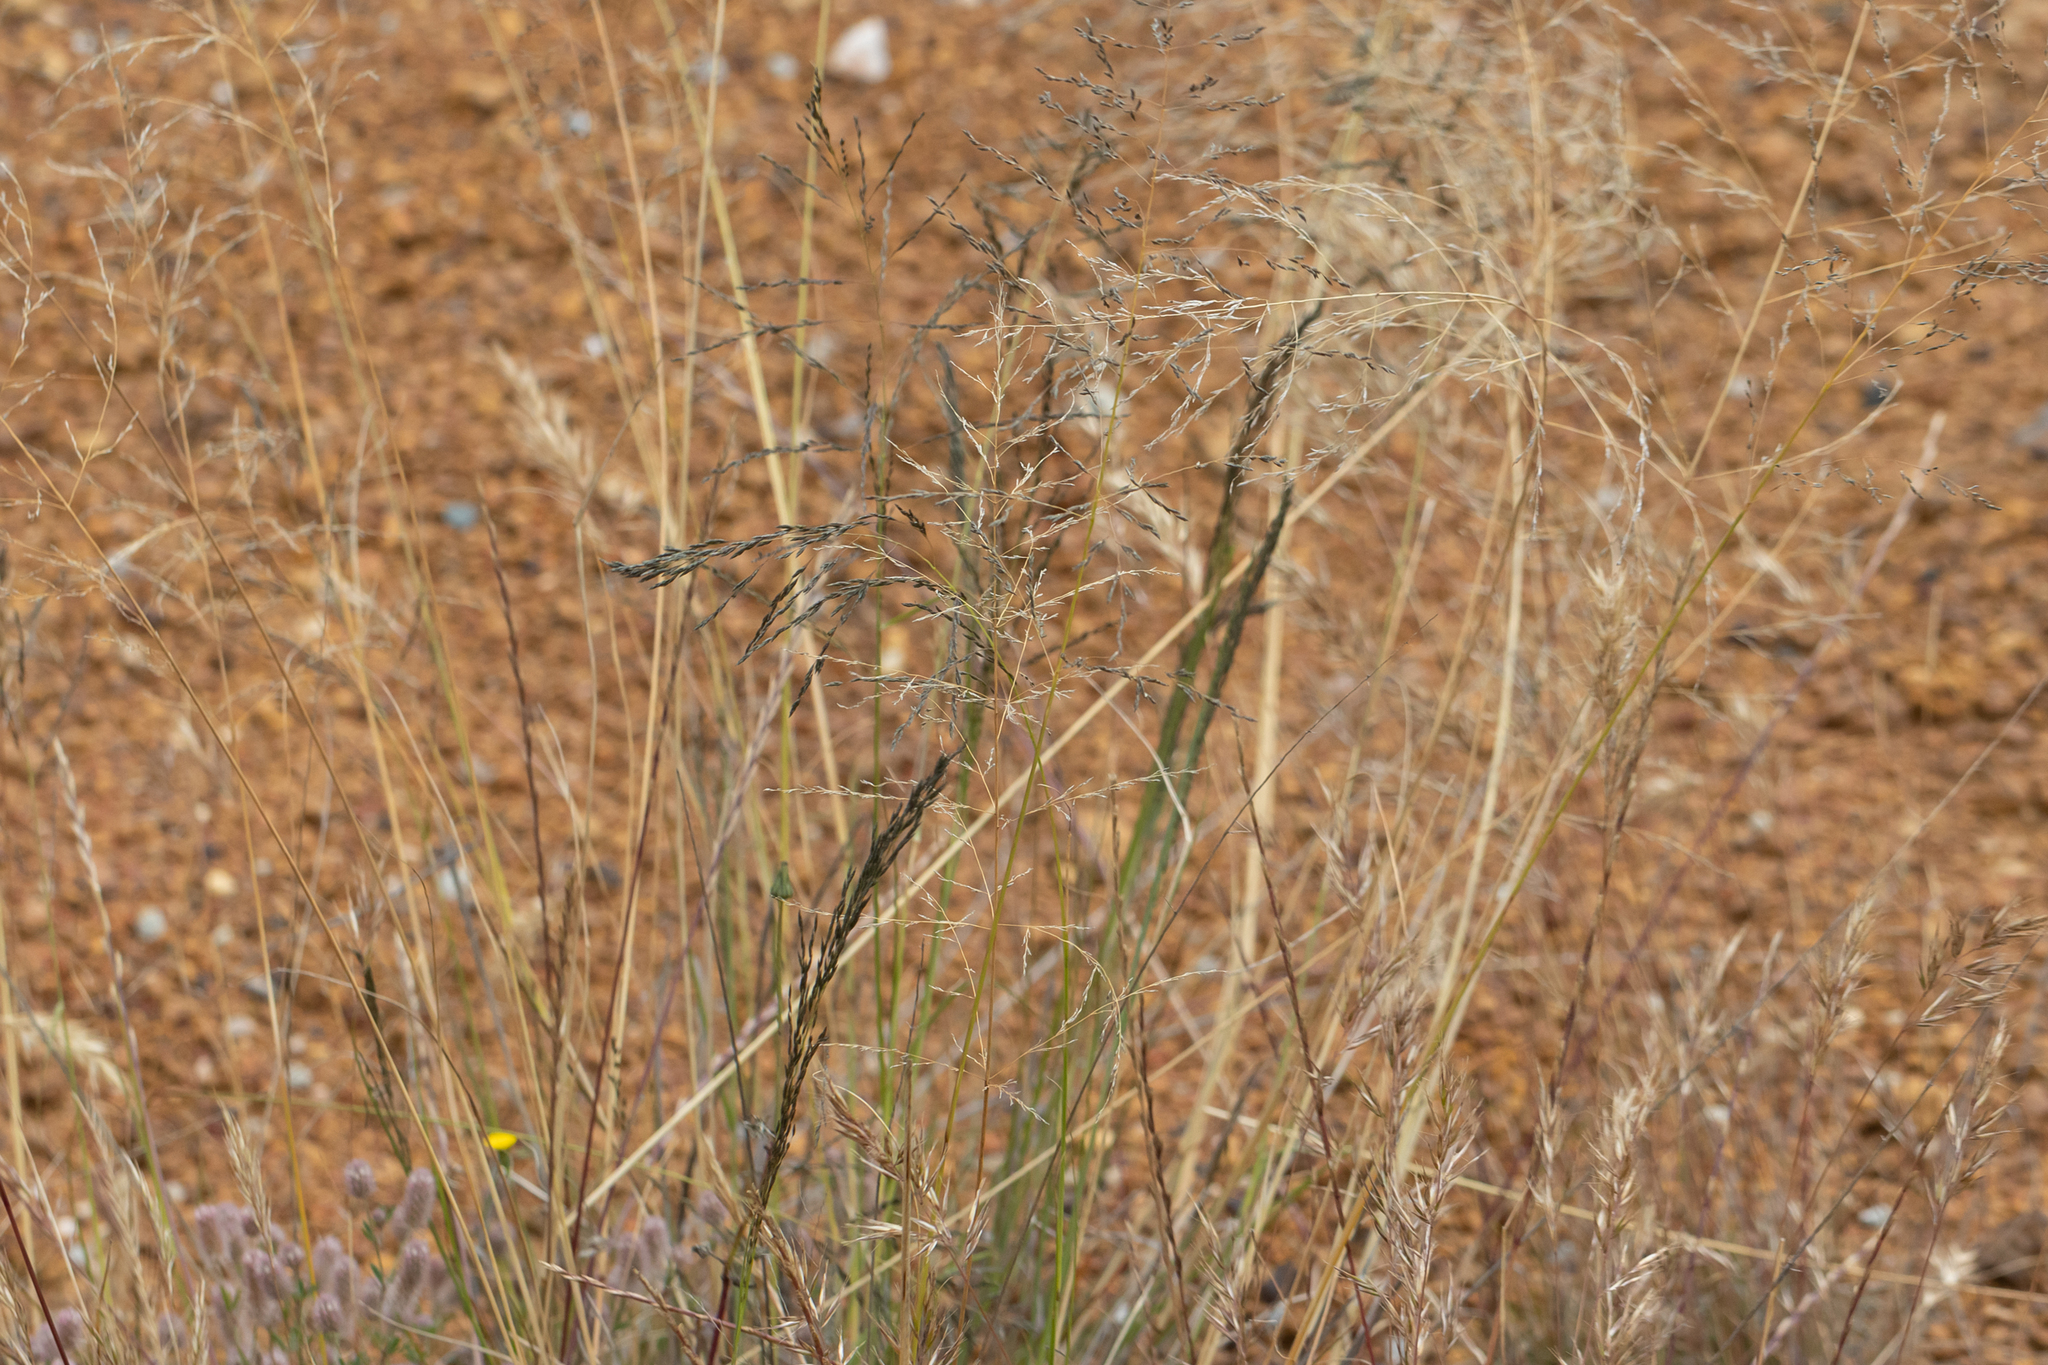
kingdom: Plantae
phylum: Tracheophyta
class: Liliopsida
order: Poales
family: Poaceae
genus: Eragrostis
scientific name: Eragrostis curvula
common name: African love-grass
